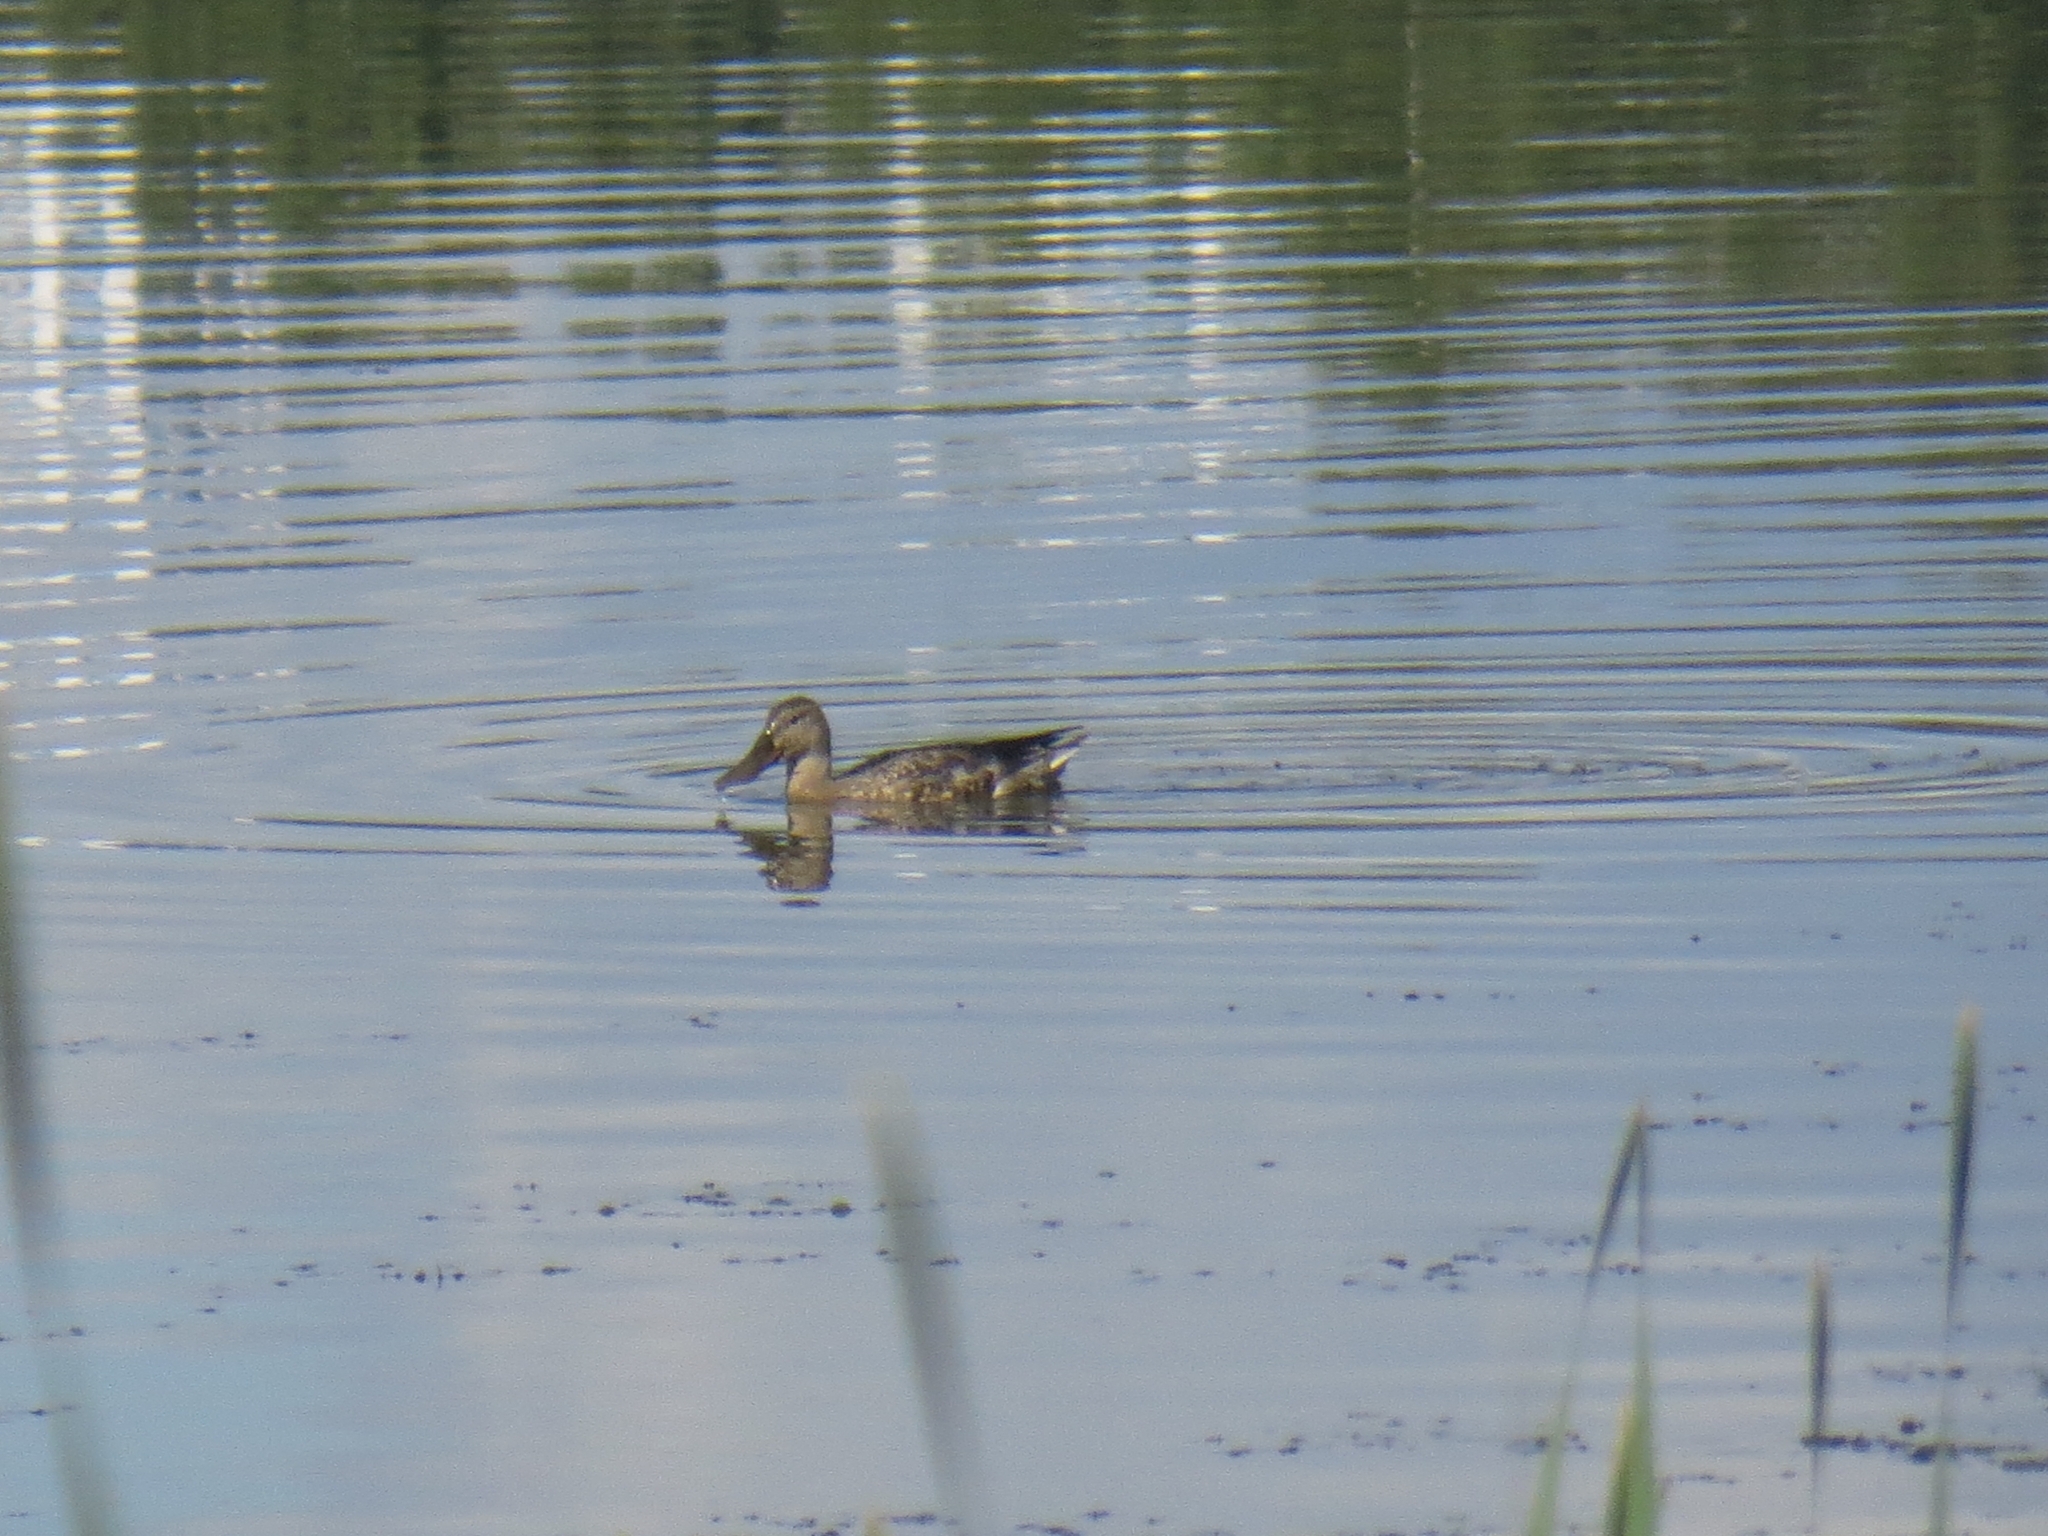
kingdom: Animalia
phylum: Chordata
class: Aves
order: Anseriformes
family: Anatidae
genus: Spatula
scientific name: Spatula clypeata
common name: Northern shoveler
